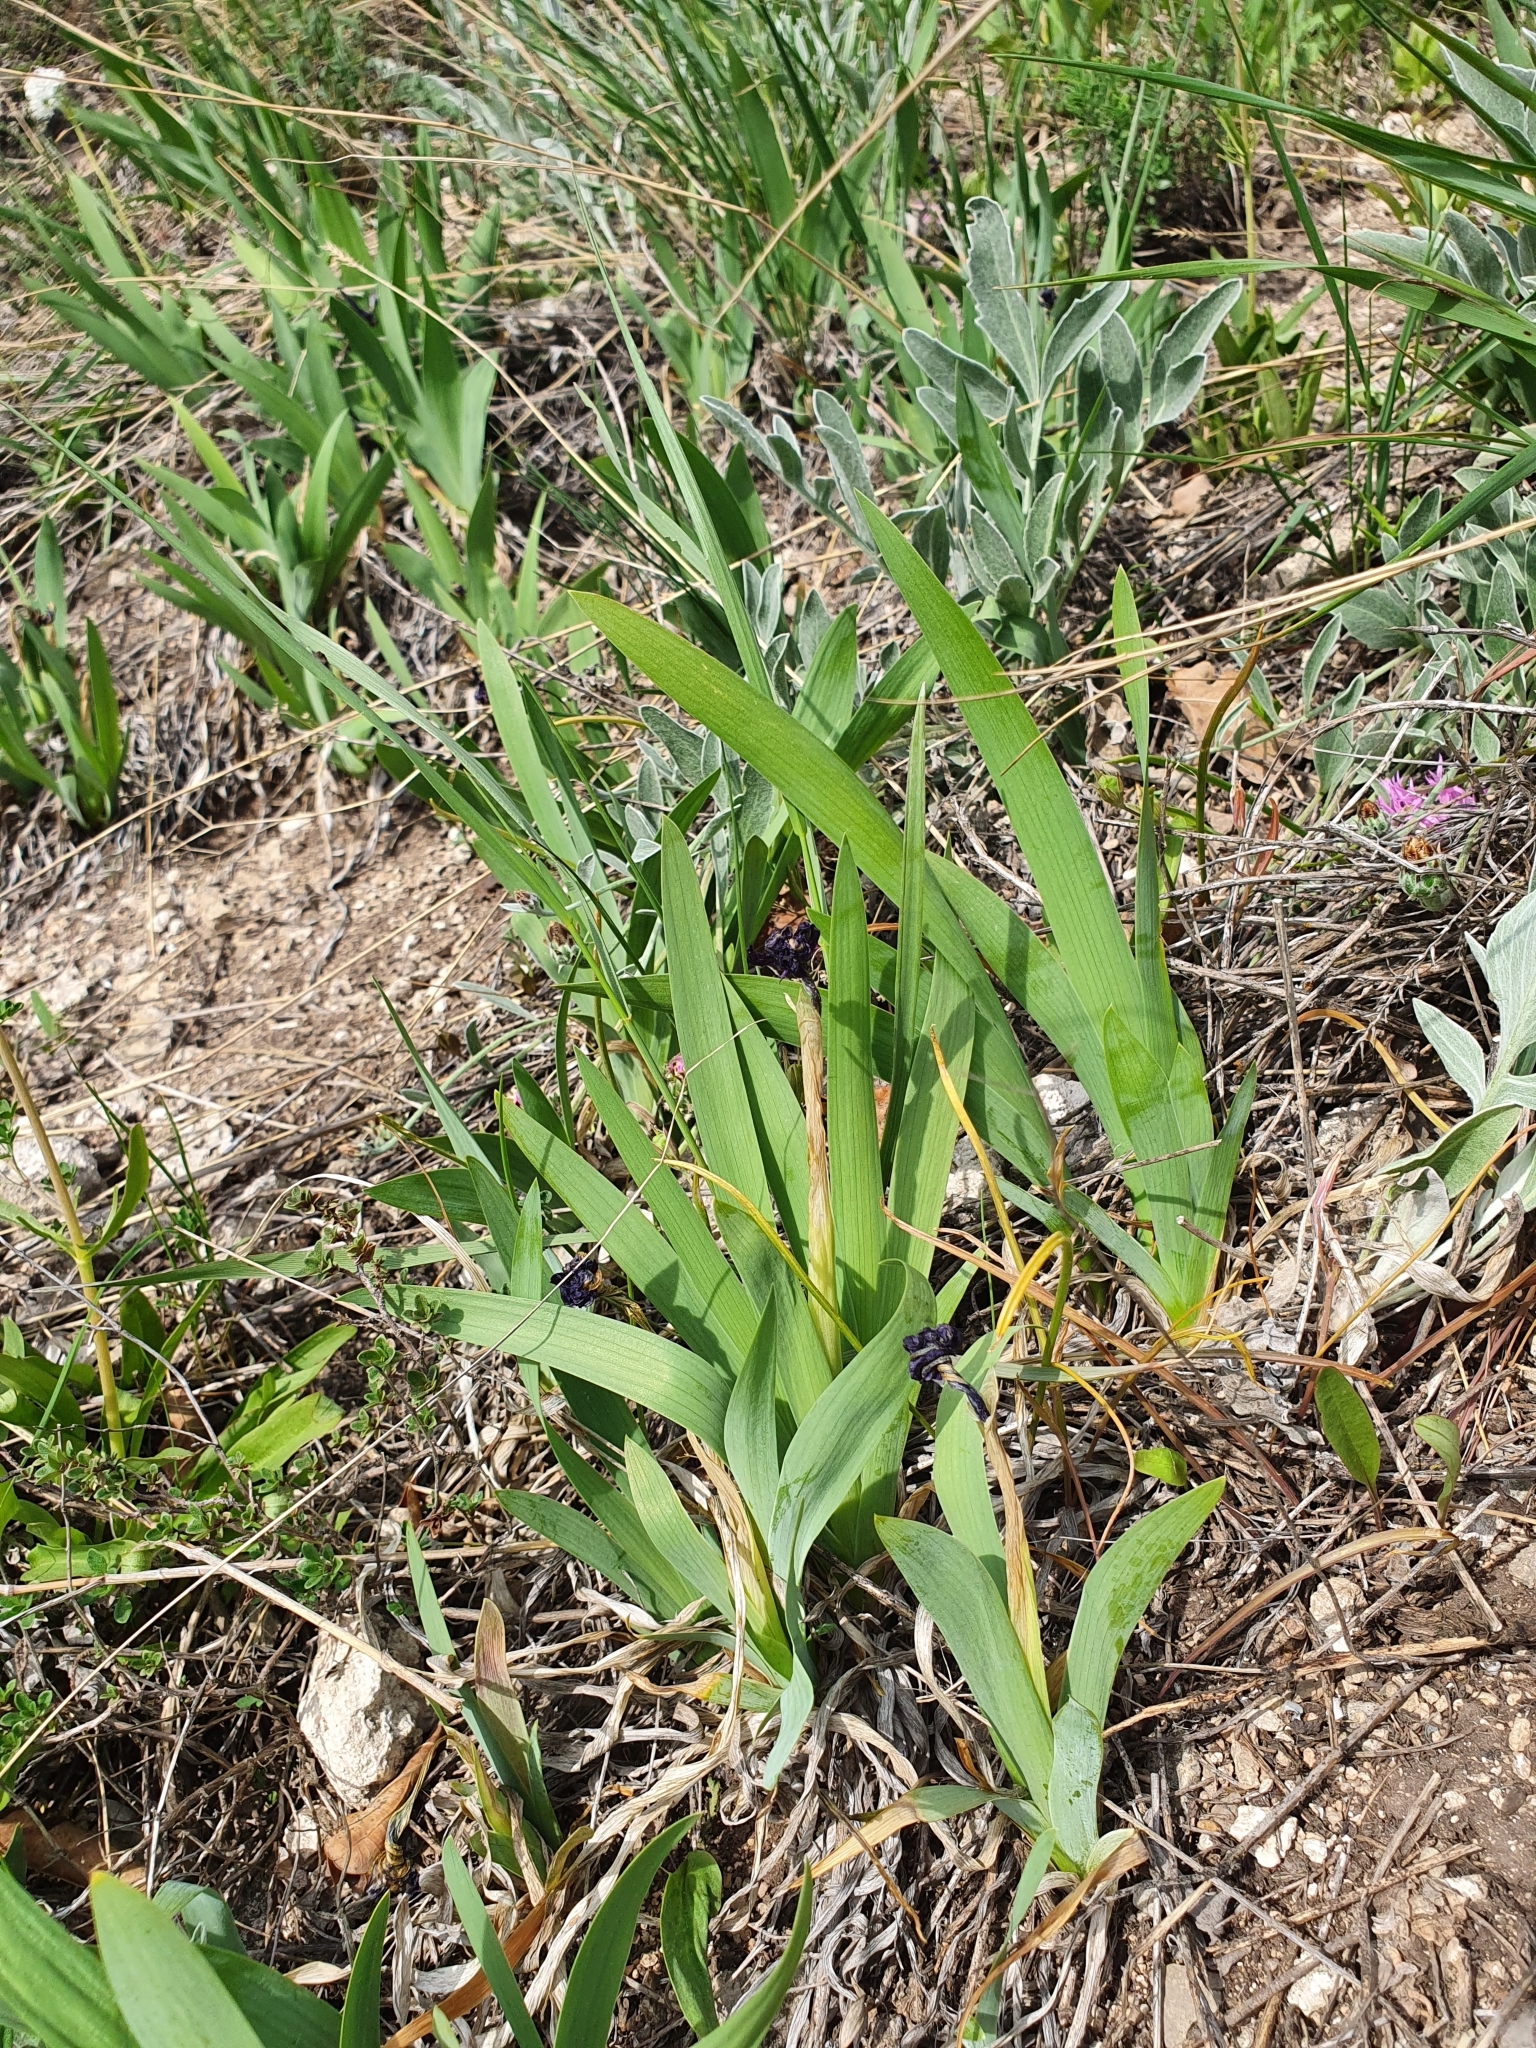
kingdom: Plantae
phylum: Tracheophyta
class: Liliopsida
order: Asparagales
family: Iridaceae
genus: Iris
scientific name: Iris pumila
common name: Dwarf iris
